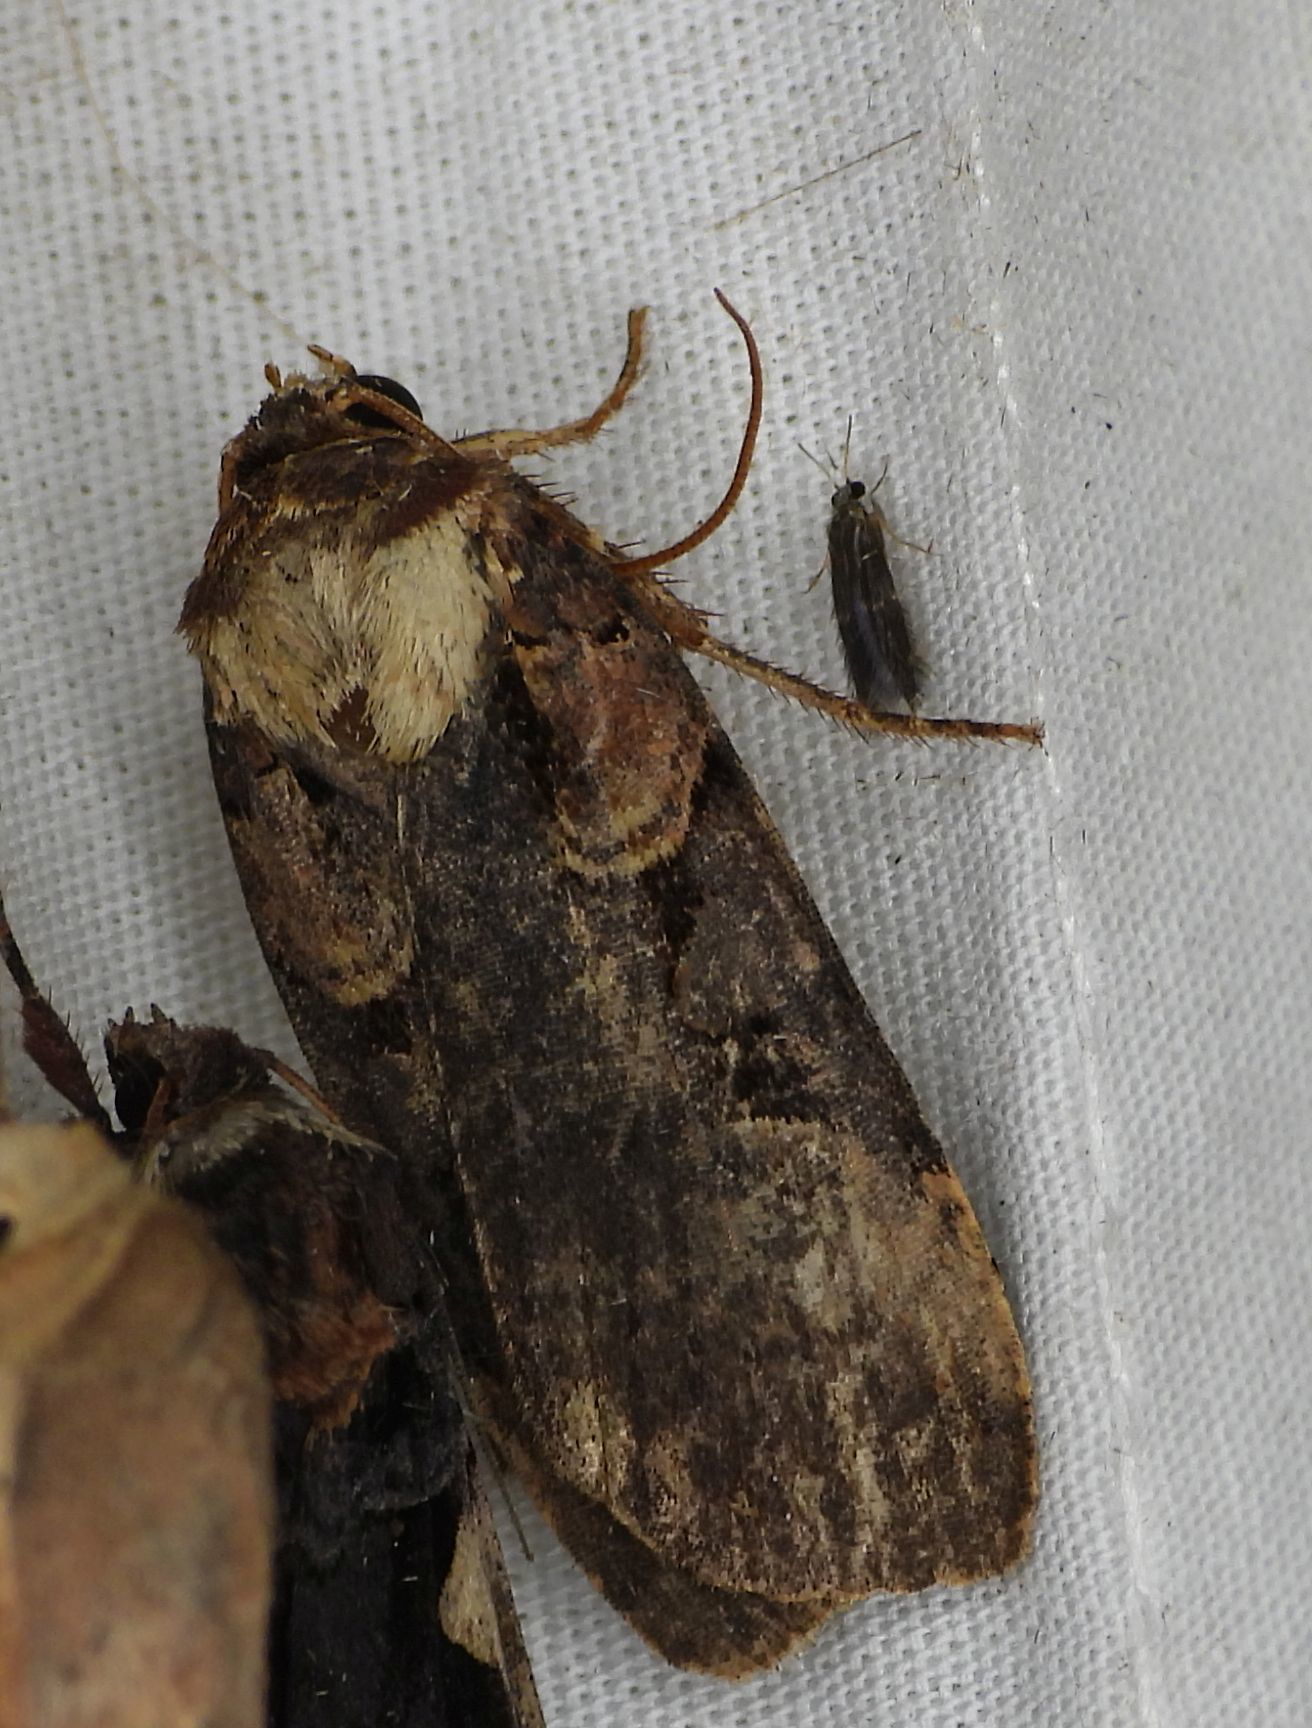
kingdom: Animalia
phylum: Arthropoda
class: Insecta
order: Lepidoptera
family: Noctuidae
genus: Pseudohermonassa
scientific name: Pseudohermonassa bicarnea
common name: Pink spotted dart
